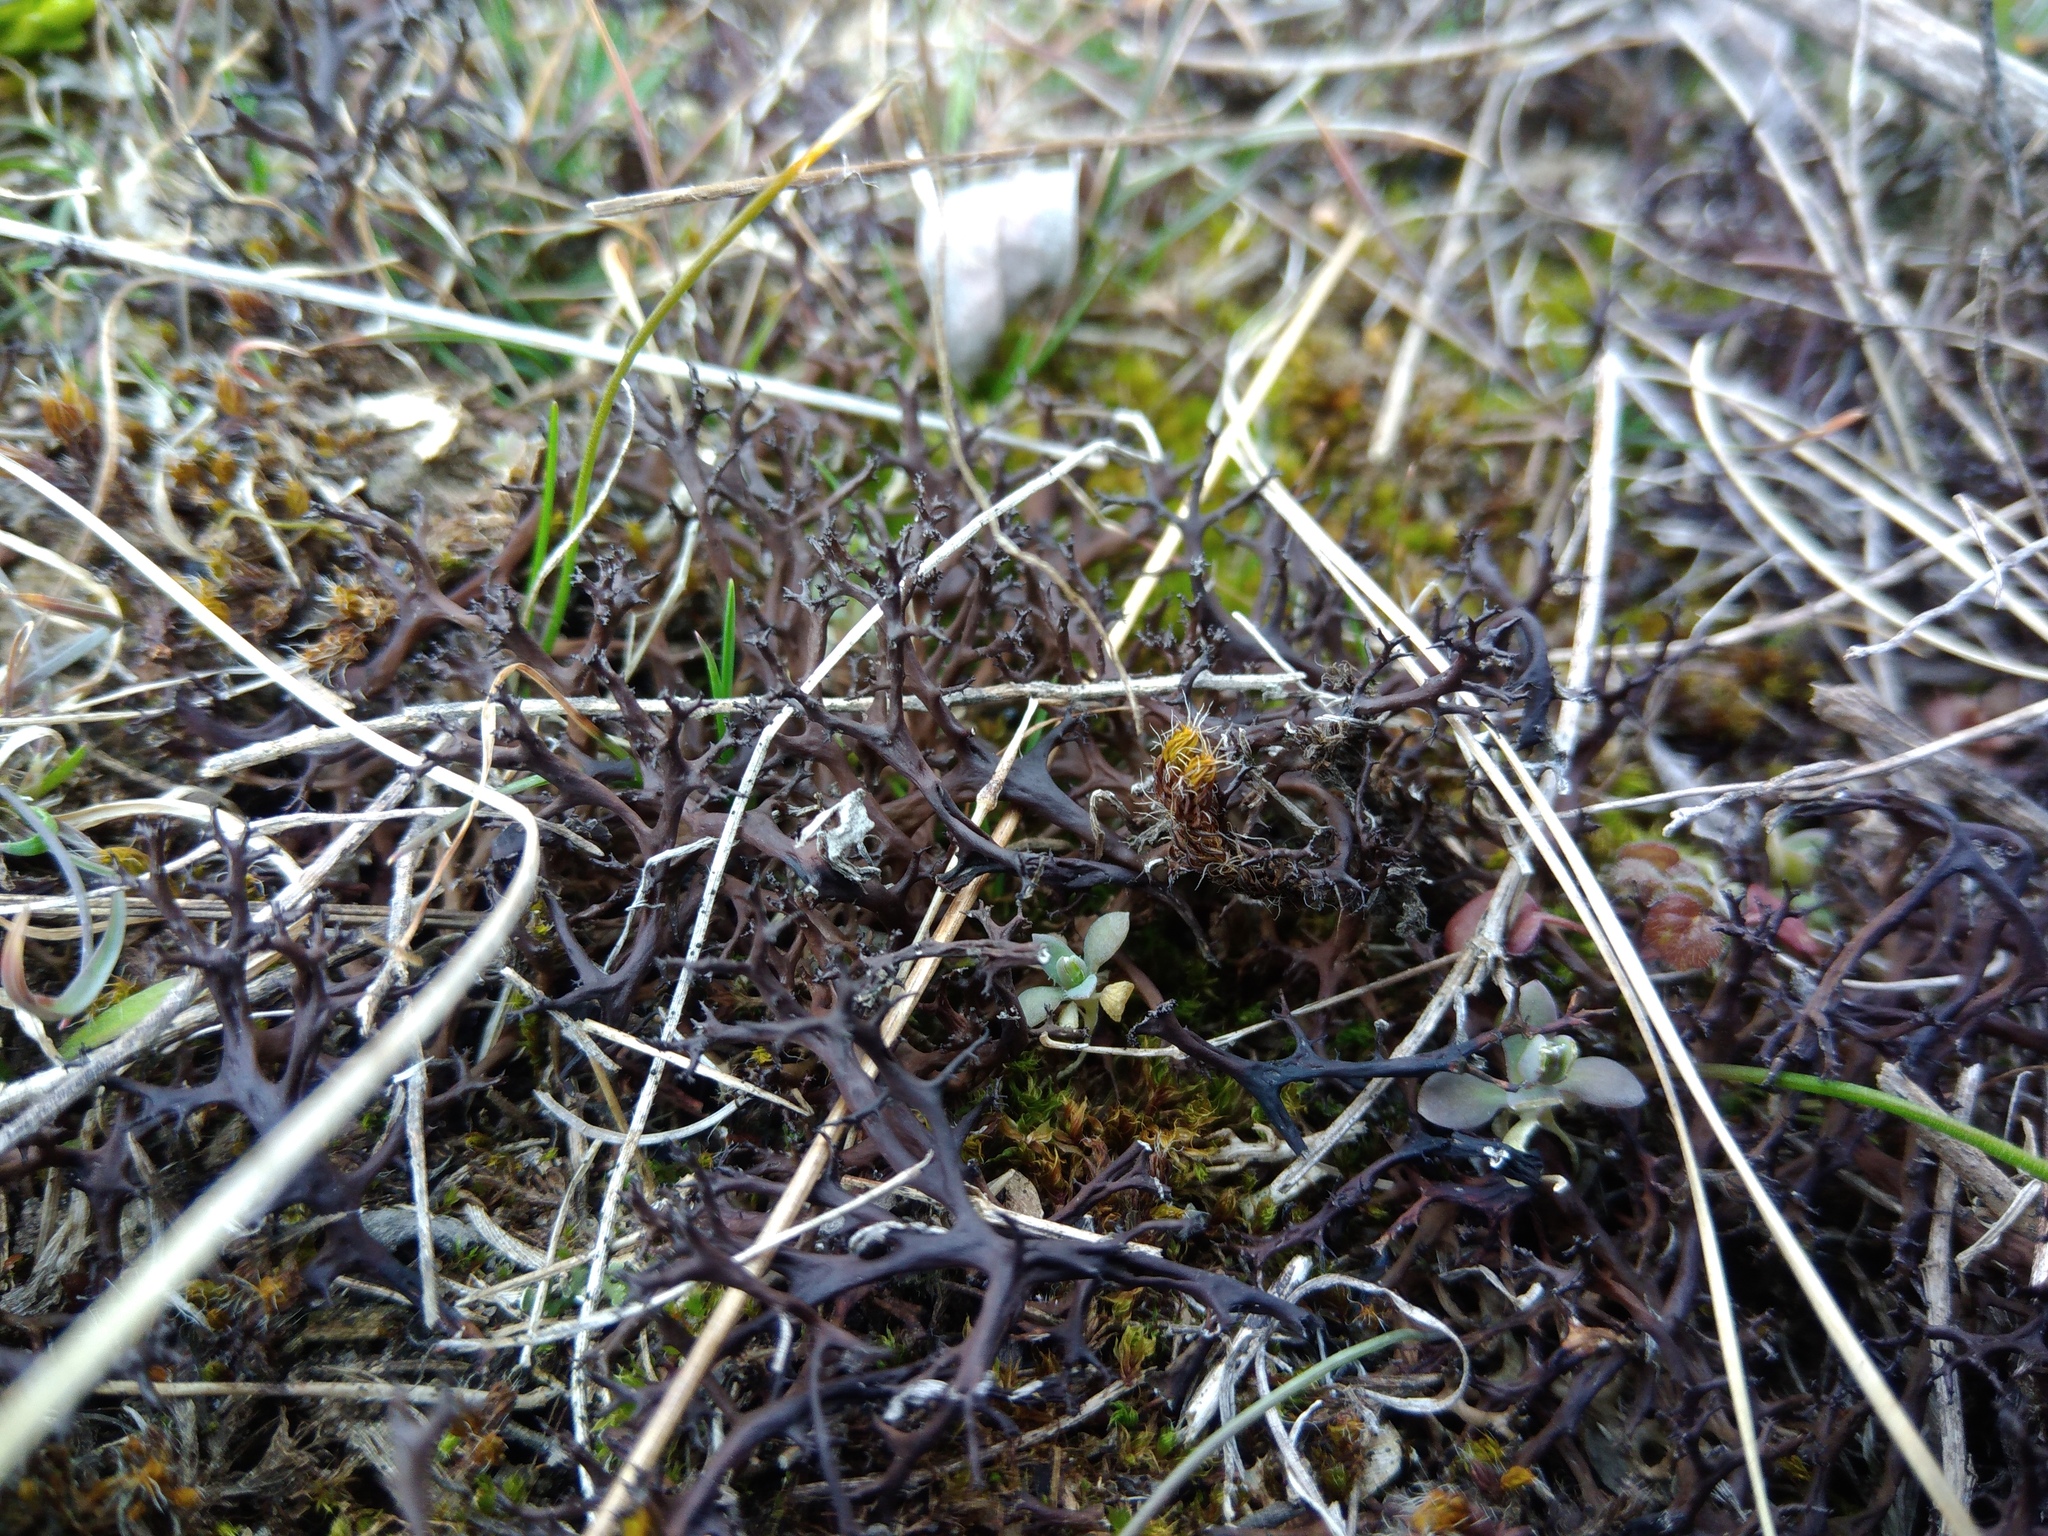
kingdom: Fungi
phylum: Ascomycota
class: Lecanoromycetes
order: Lecanorales
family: Parmeliaceae
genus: Cetraria
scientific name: Cetraria aculeata
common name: Spiny heath lichen
